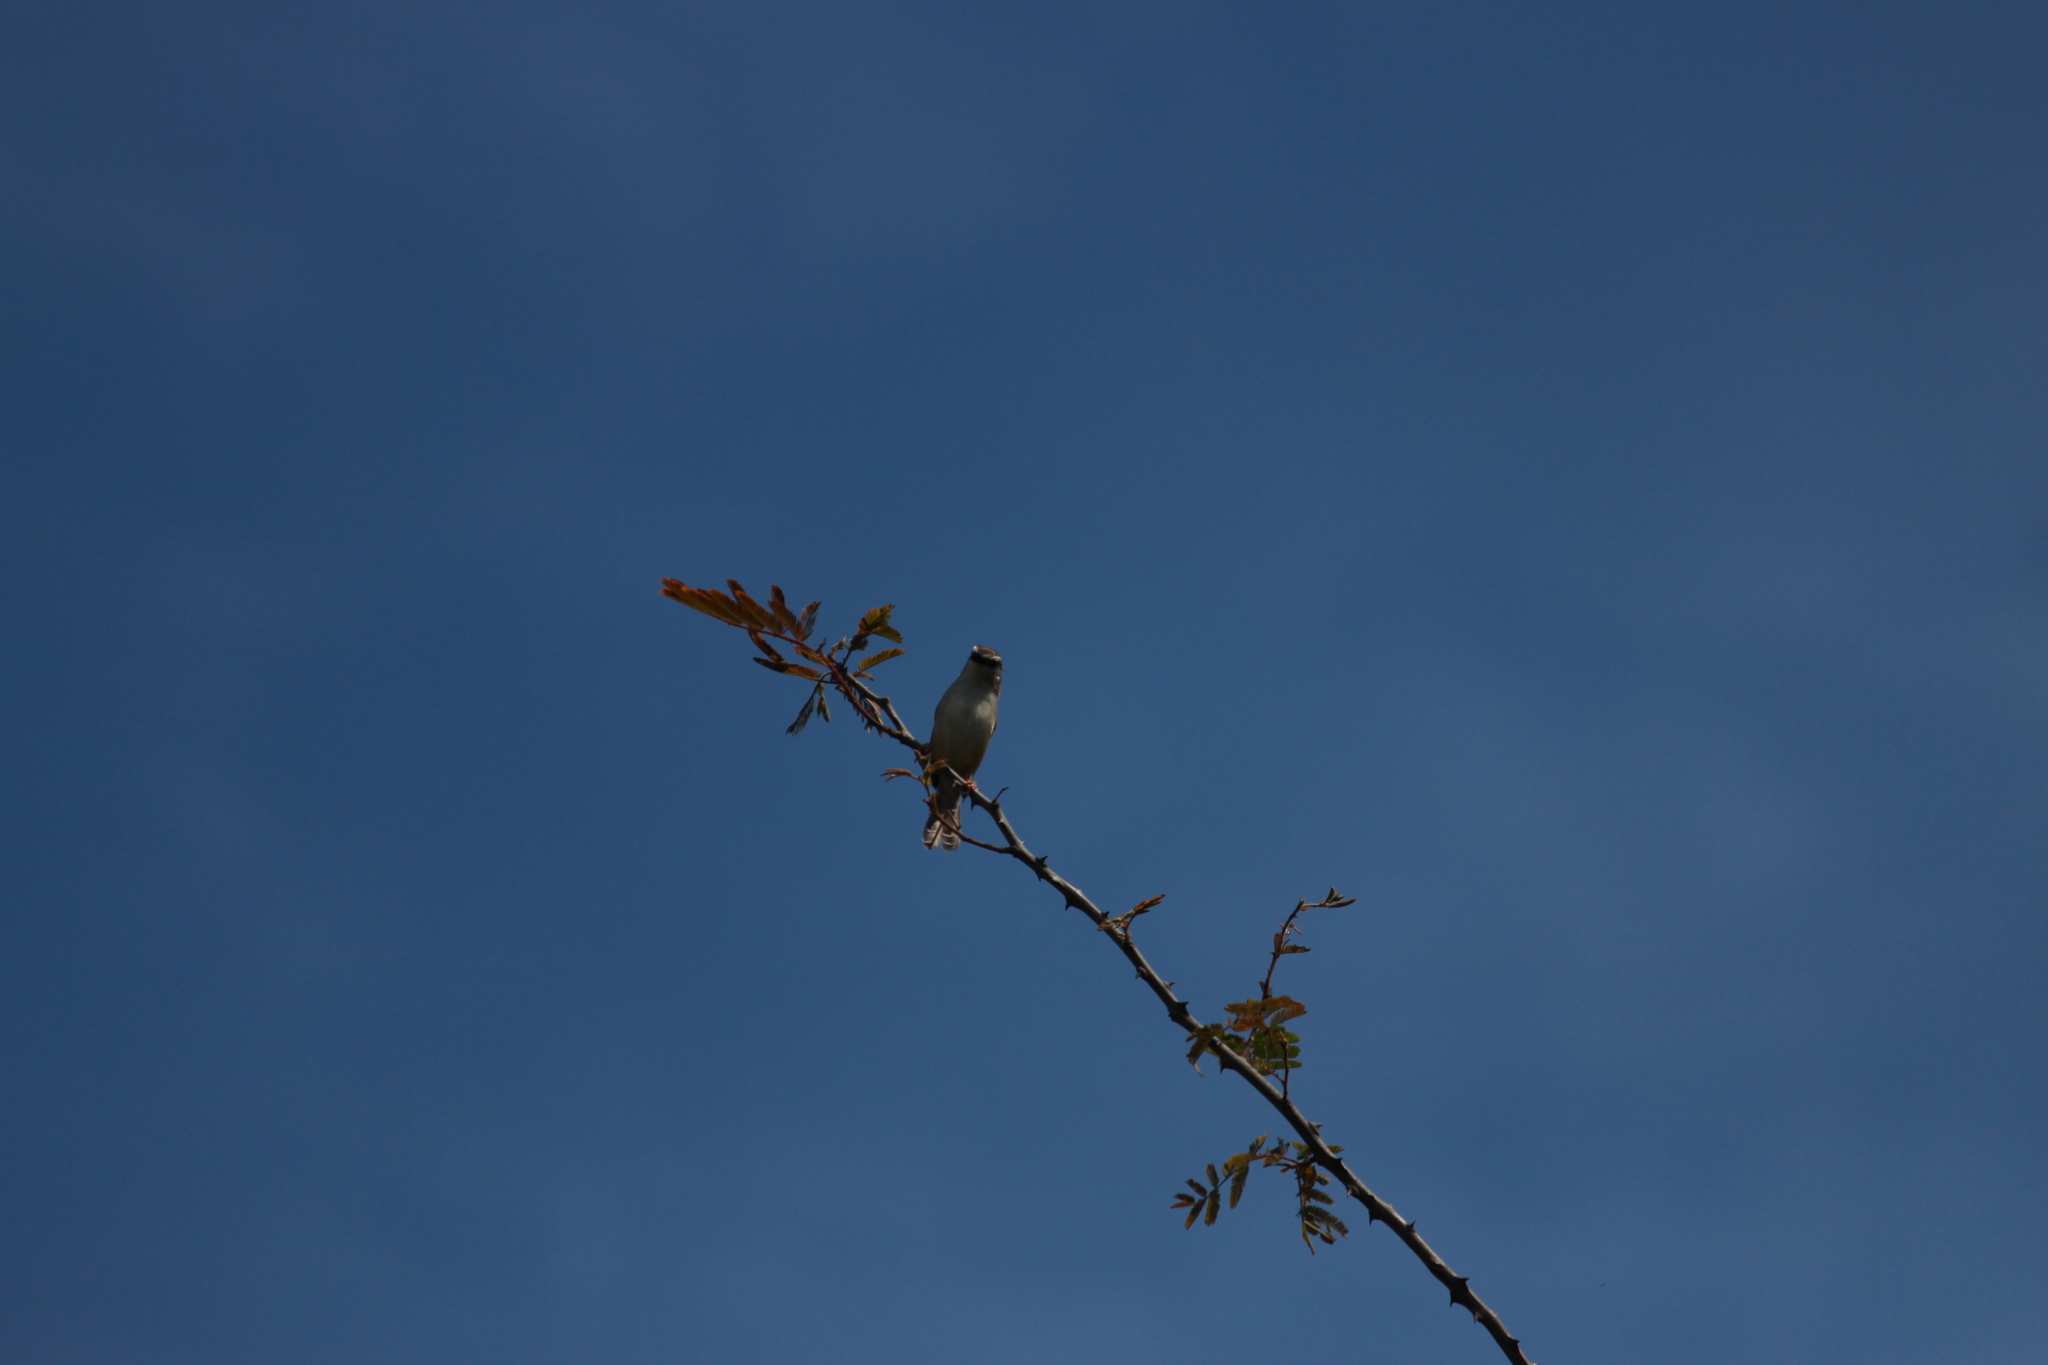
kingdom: Animalia
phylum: Chordata
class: Aves
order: Passeriformes
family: Cisticolidae
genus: Prinia
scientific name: Prinia subflava
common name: Tawny-flanked prinia
